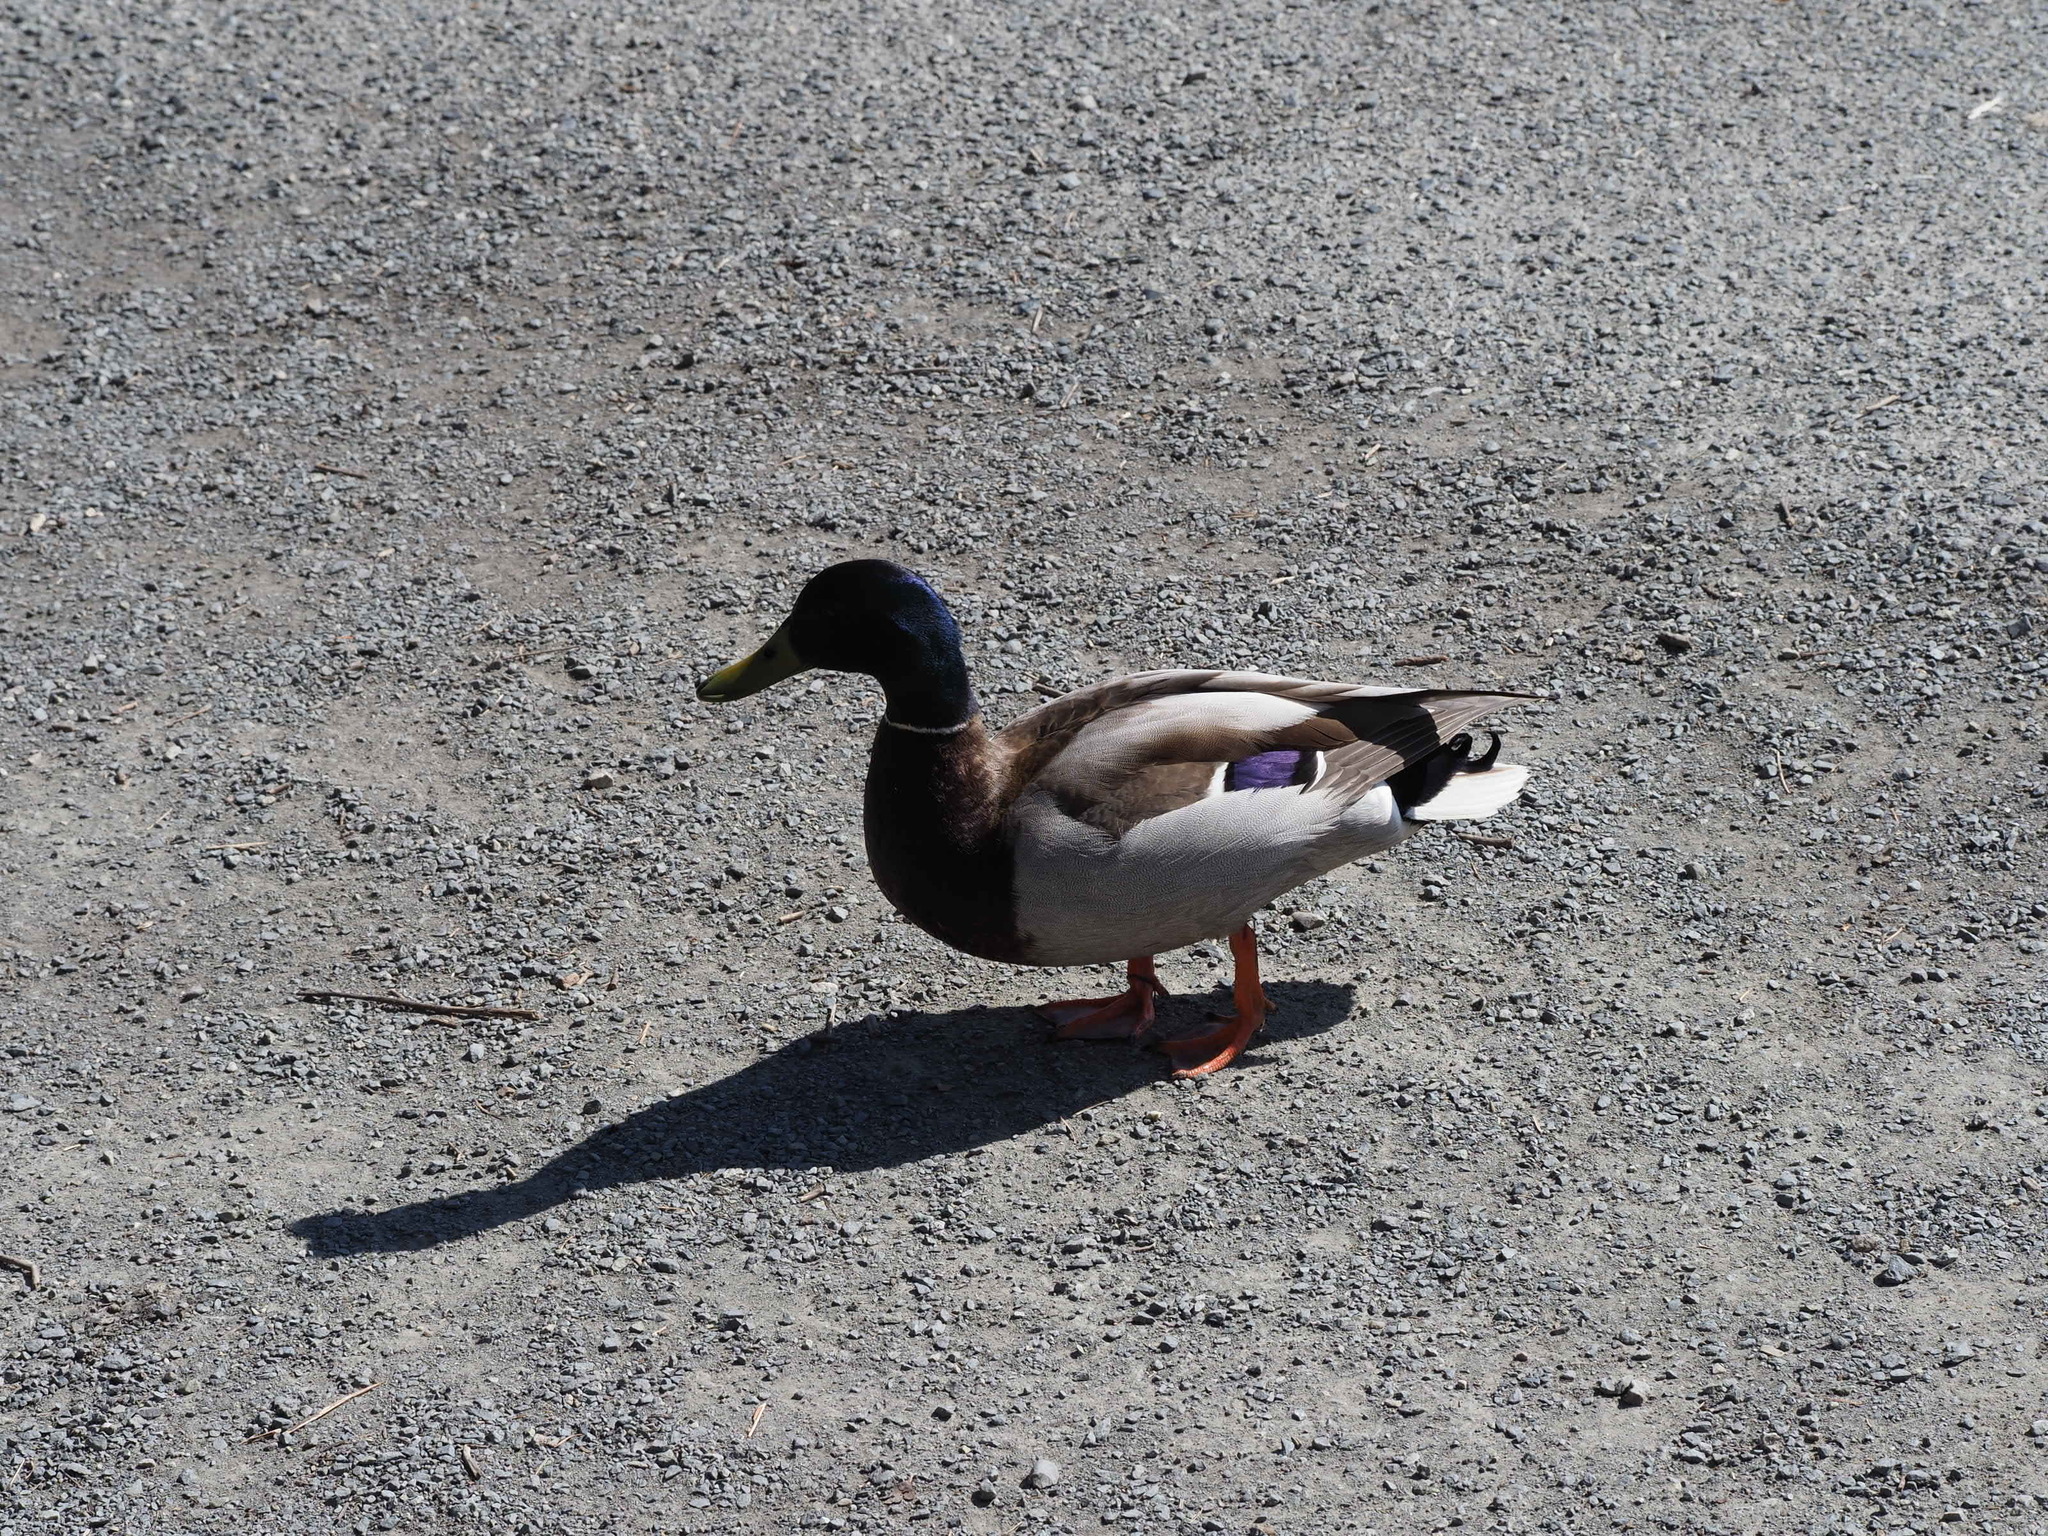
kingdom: Animalia
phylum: Chordata
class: Aves
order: Anseriformes
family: Anatidae
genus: Anas
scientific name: Anas platyrhynchos
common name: Mallard
